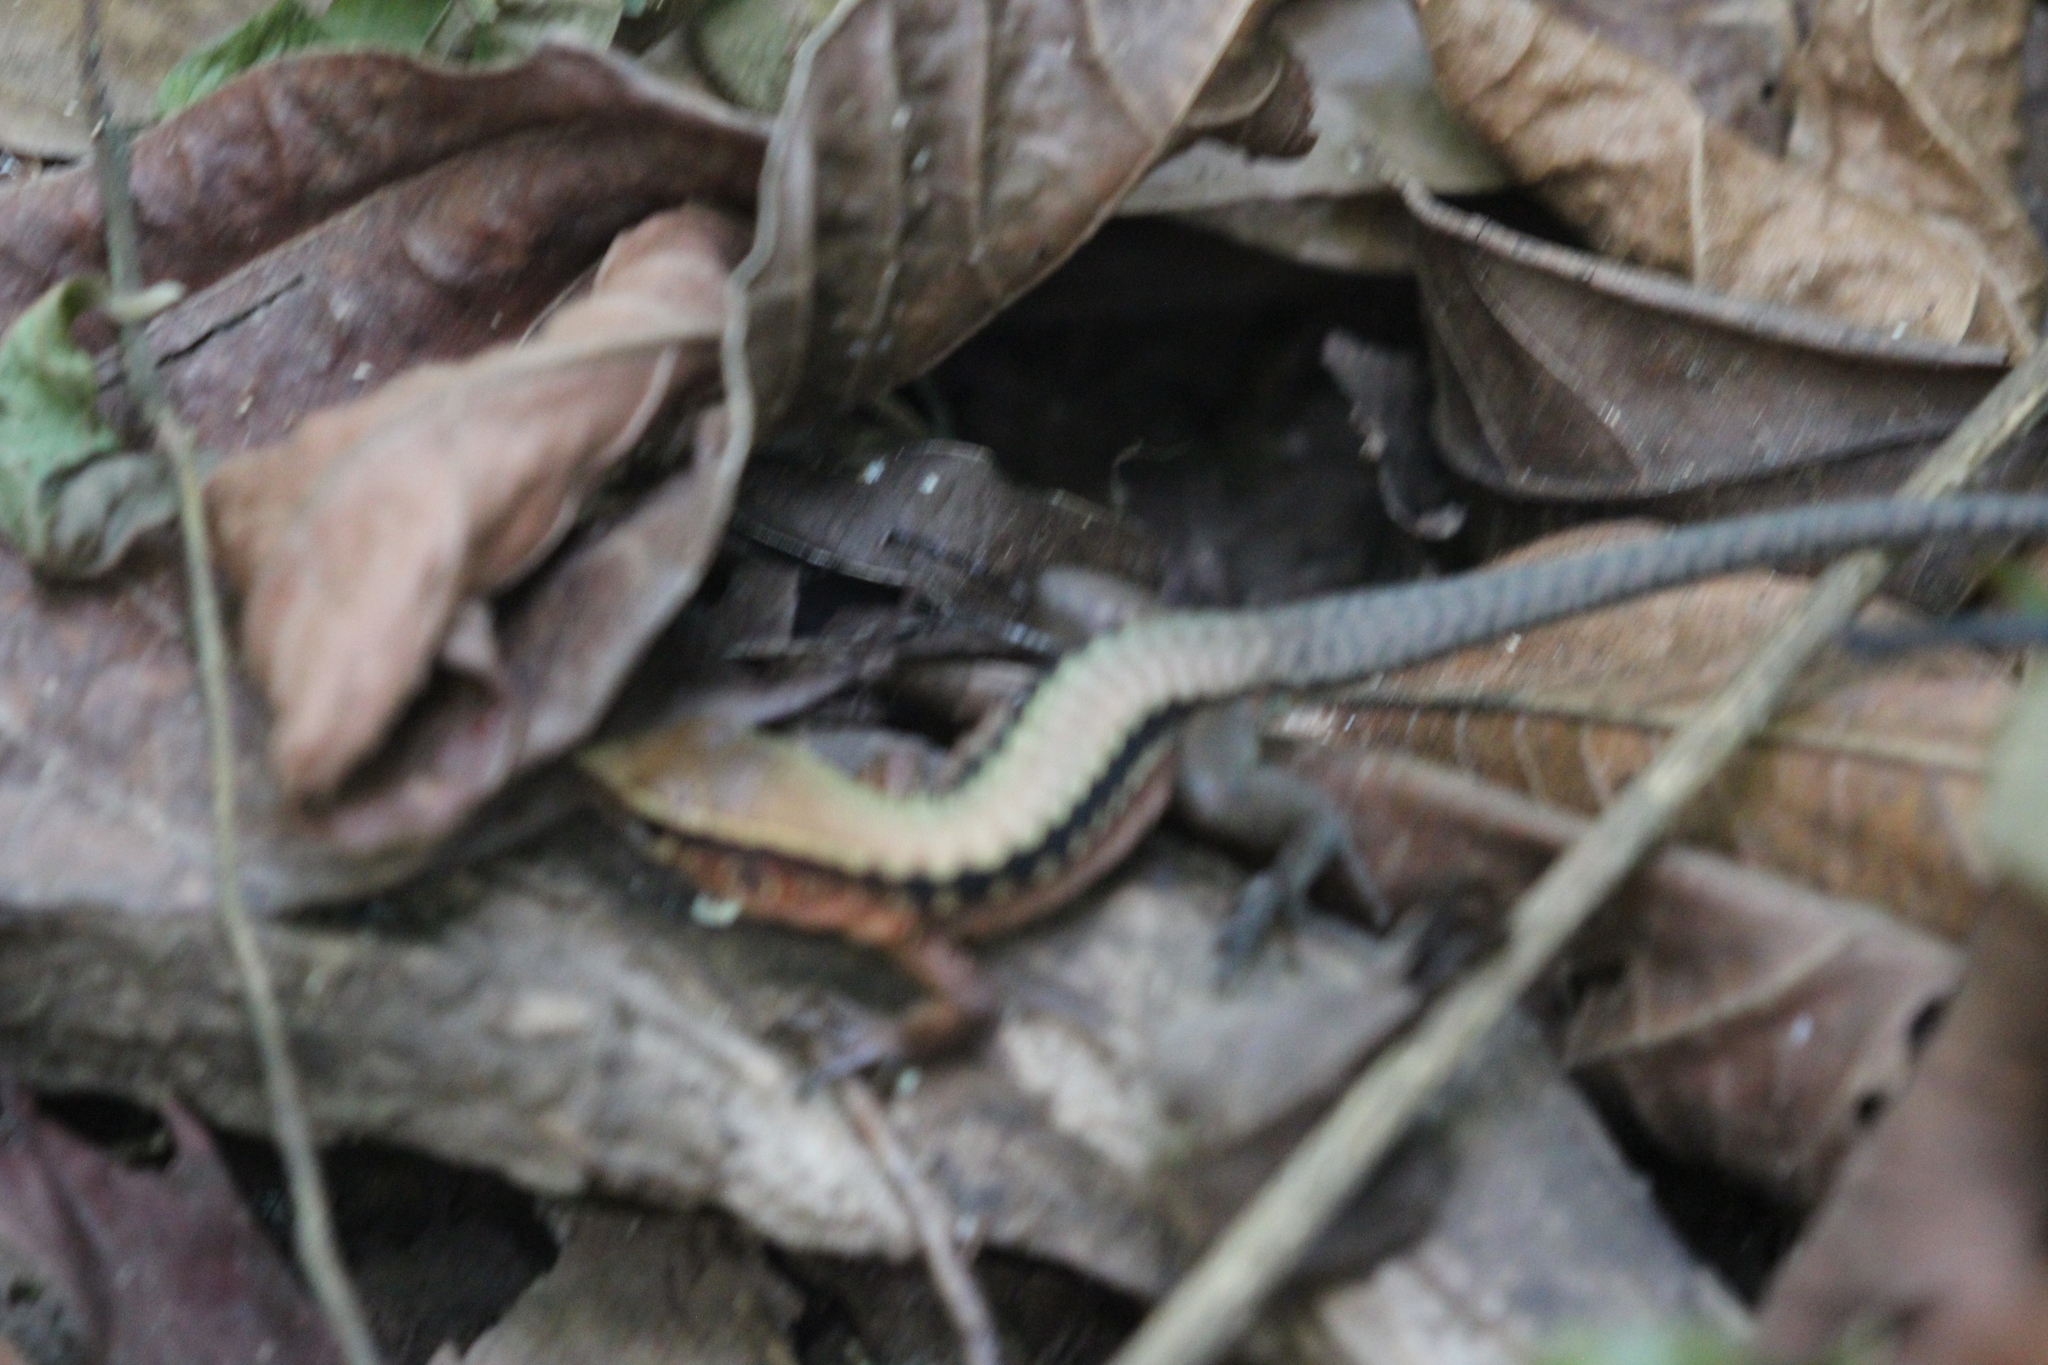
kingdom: Animalia
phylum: Chordata
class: Squamata
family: Teiidae
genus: Holcosus
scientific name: Holcosus leptophrys
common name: Delicate ameiva
